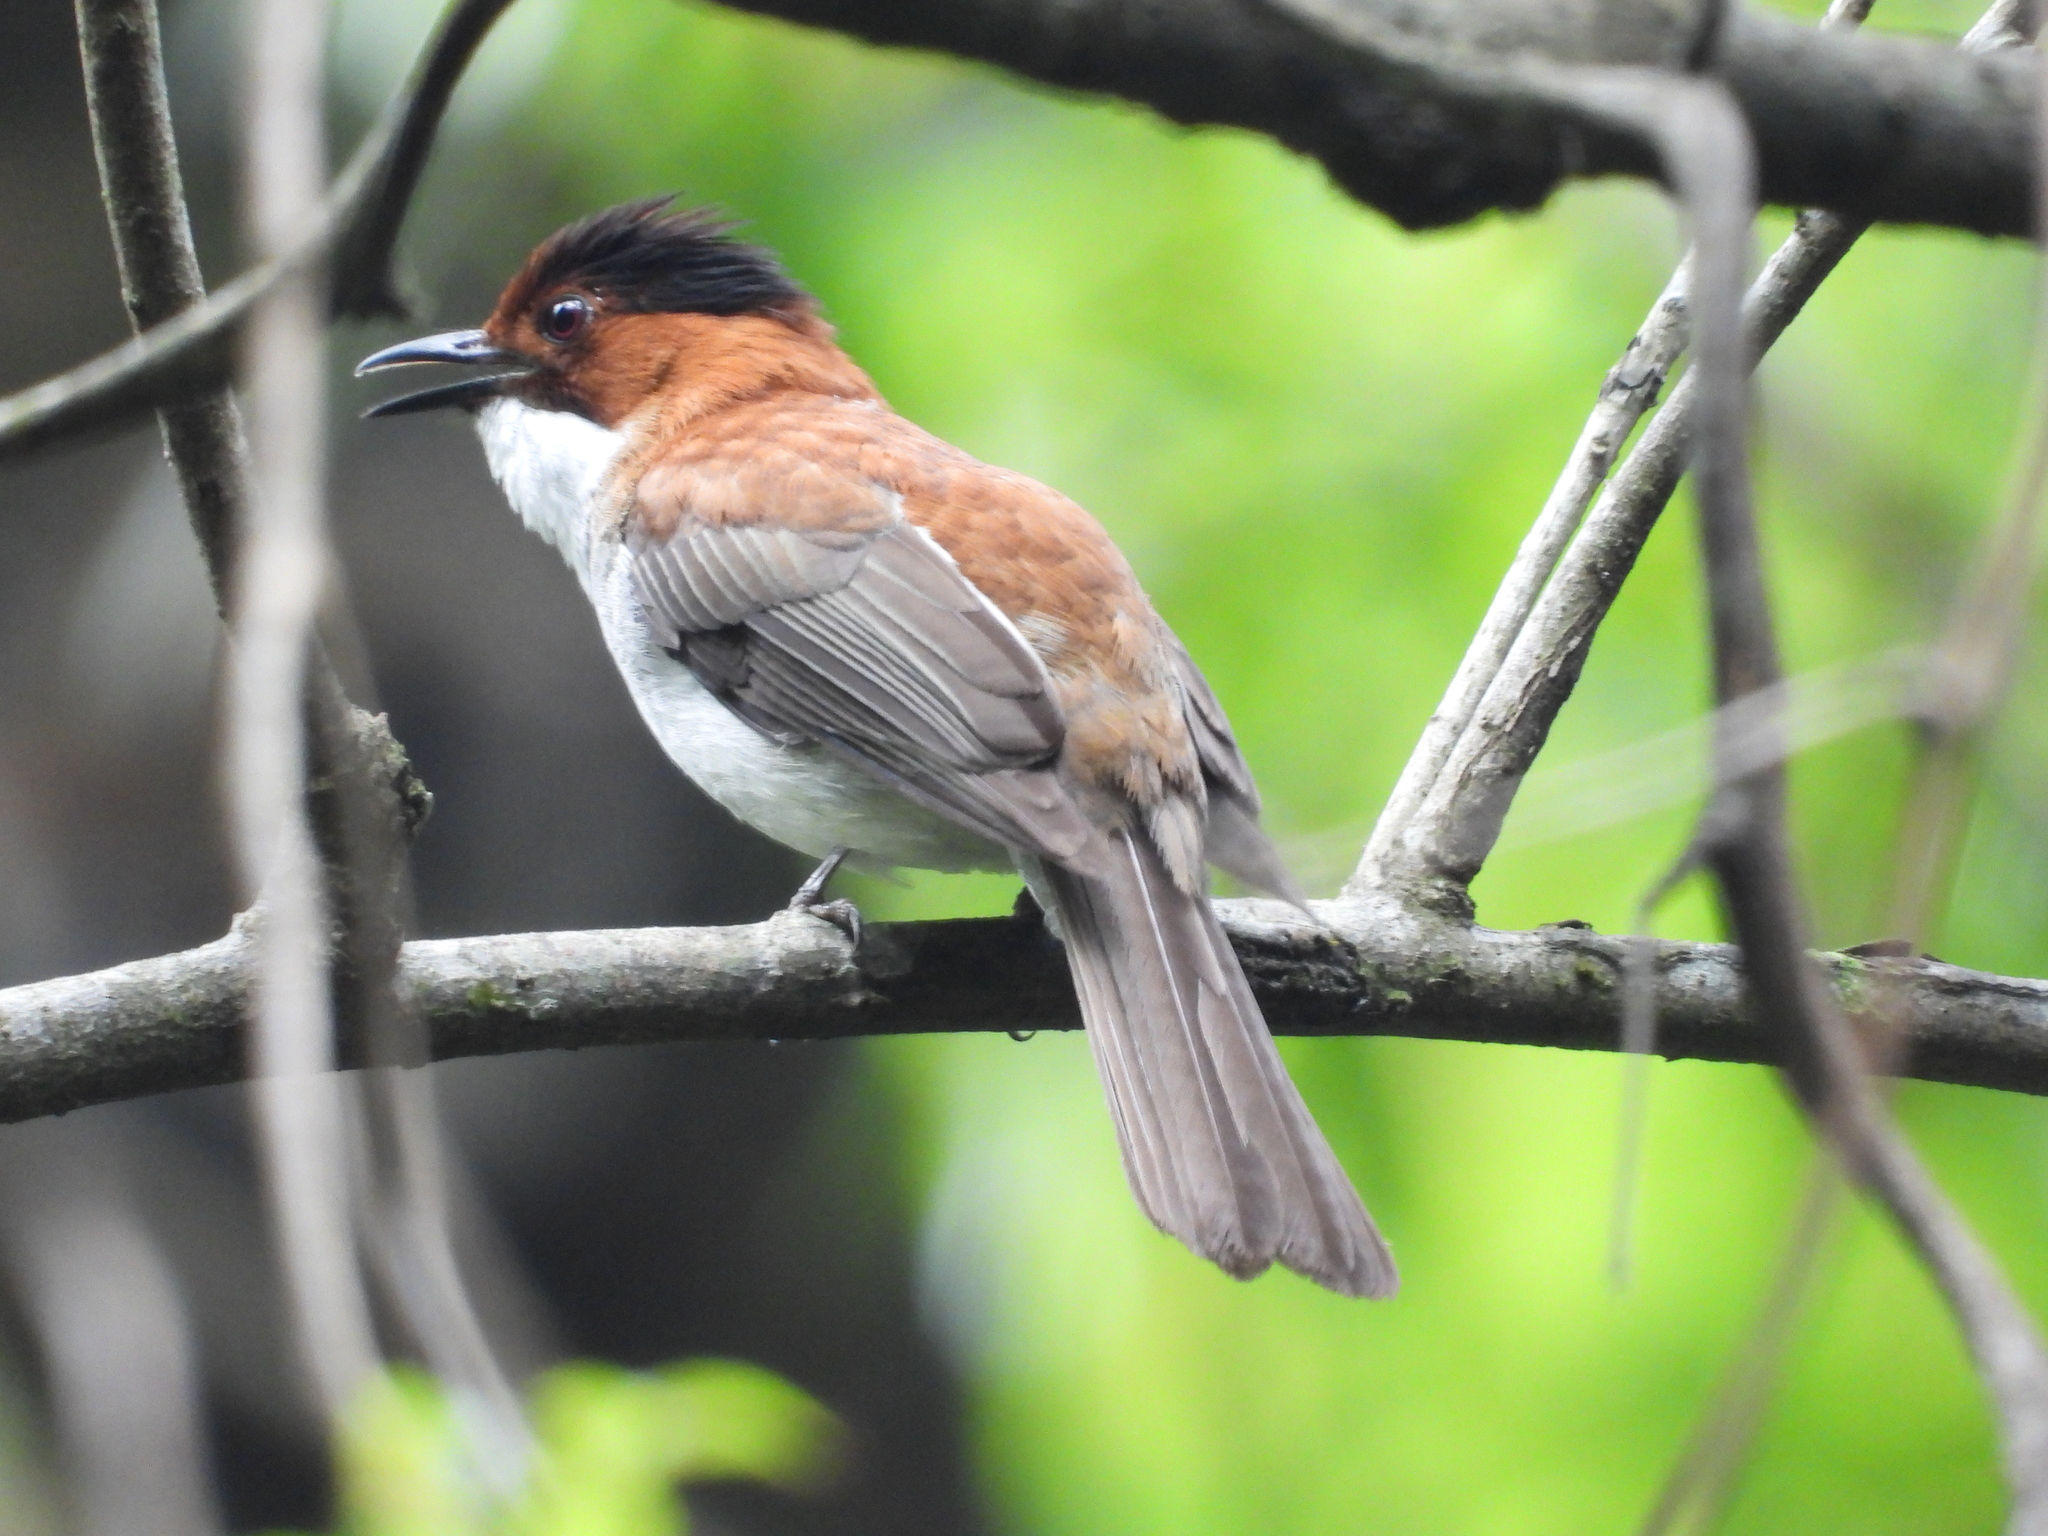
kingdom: Animalia
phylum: Chordata
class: Aves
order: Passeriformes
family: Pycnonotidae
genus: Hemixos
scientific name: Hemixos castanonotus
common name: Chestnut bulbul
